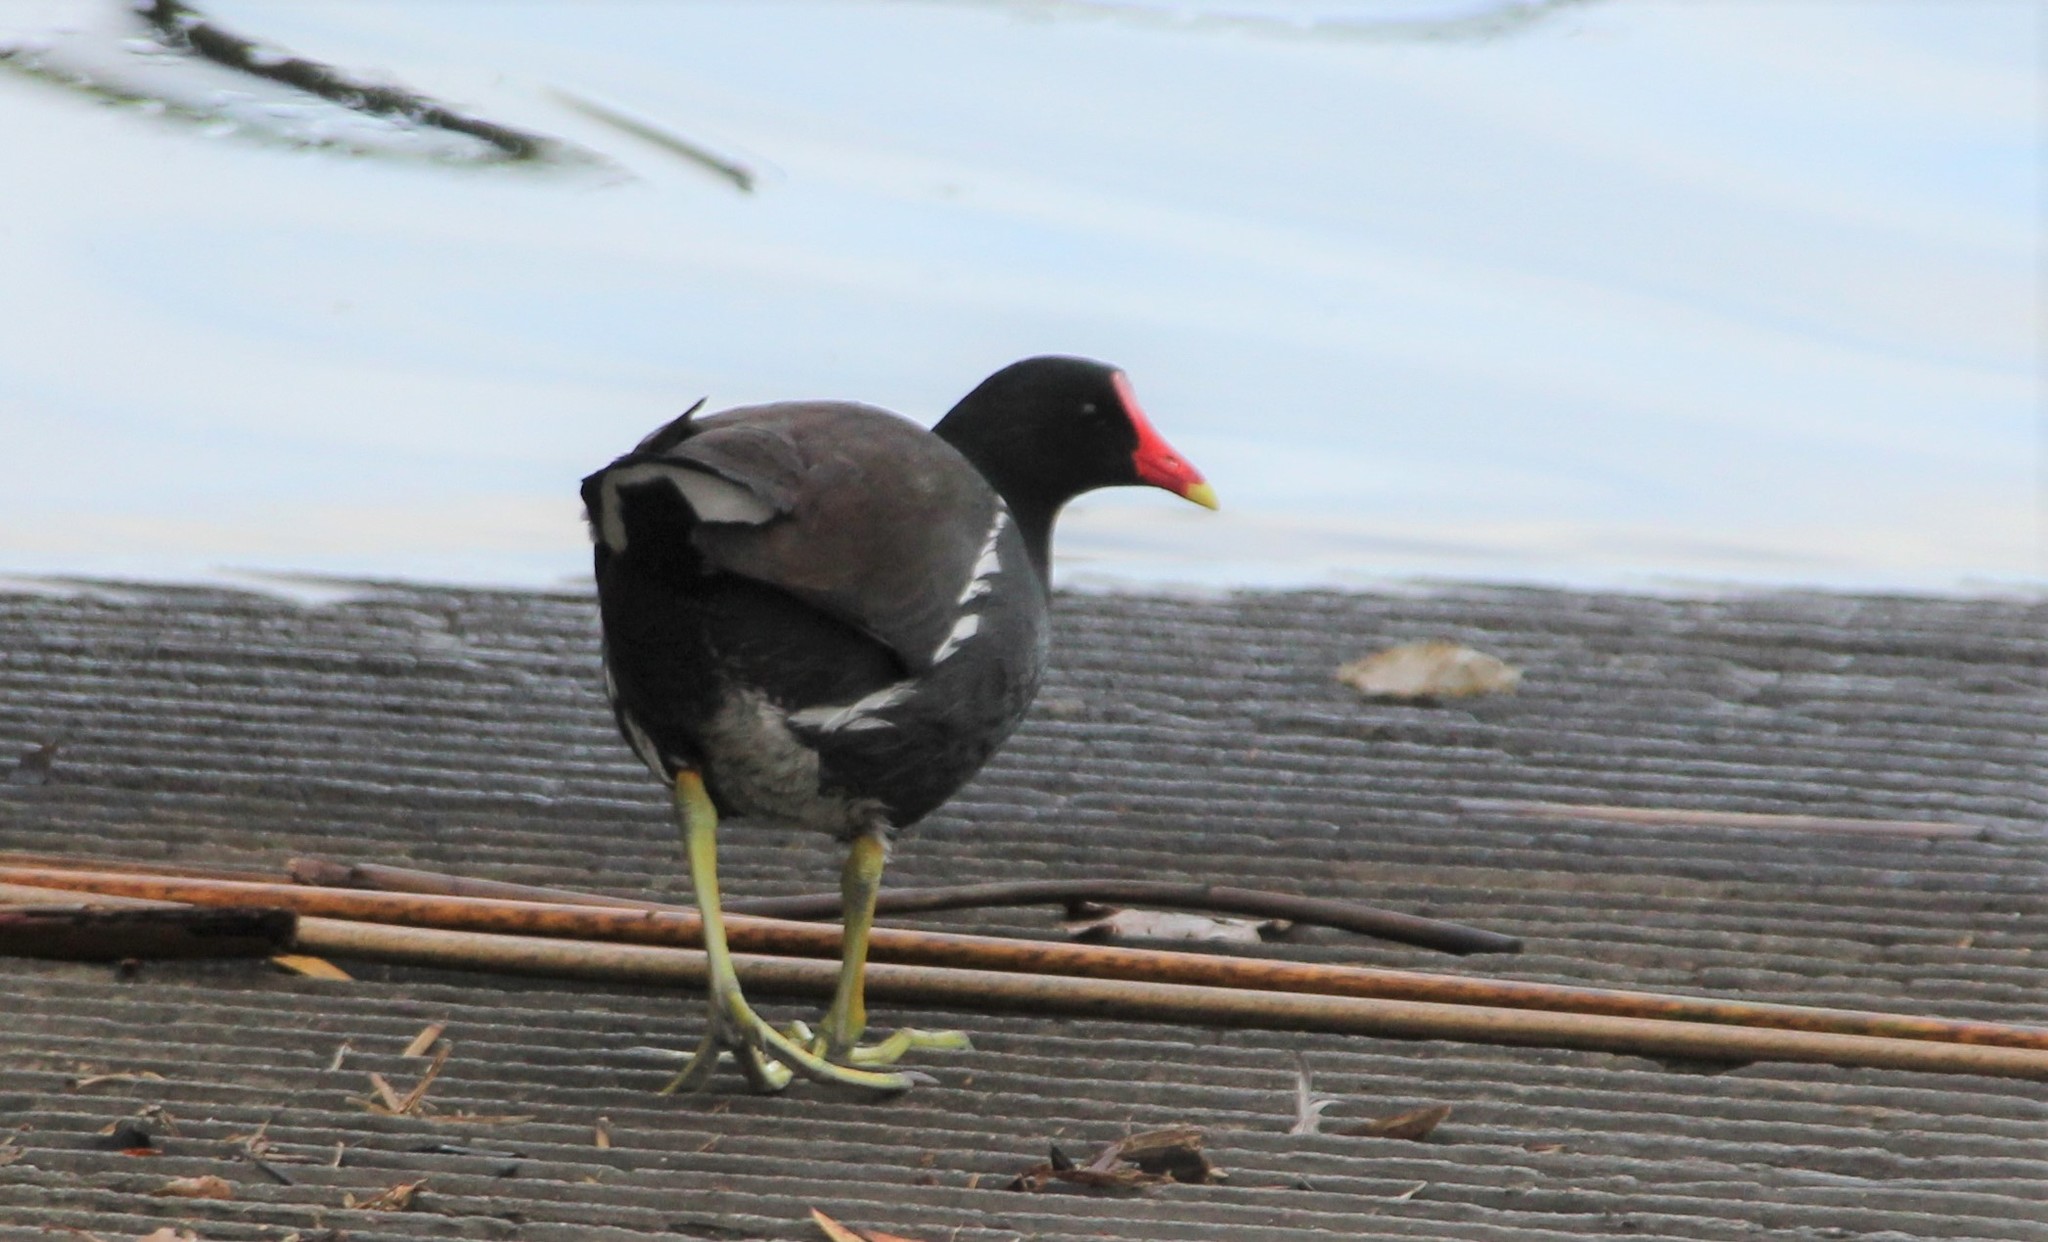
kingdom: Animalia
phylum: Chordata
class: Aves
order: Gruiformes
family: Rallidae
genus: Gallinula
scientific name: Gallinula chloropus
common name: Common moorhen
